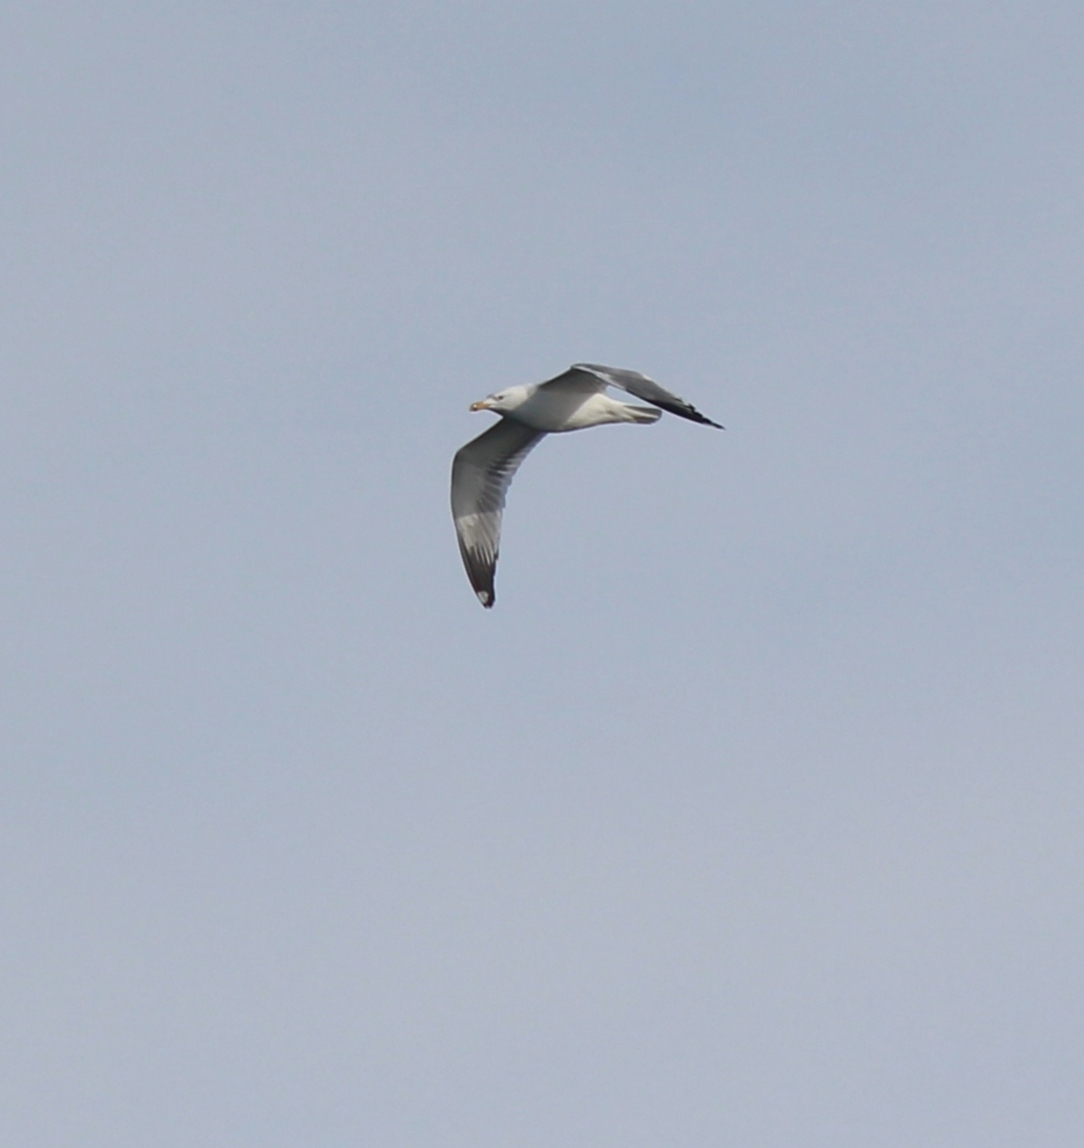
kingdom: Animalia
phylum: Chordata
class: Aves
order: Charadriiformes
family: Laridae
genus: Larus
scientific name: Larus vegae
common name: Vega gull
